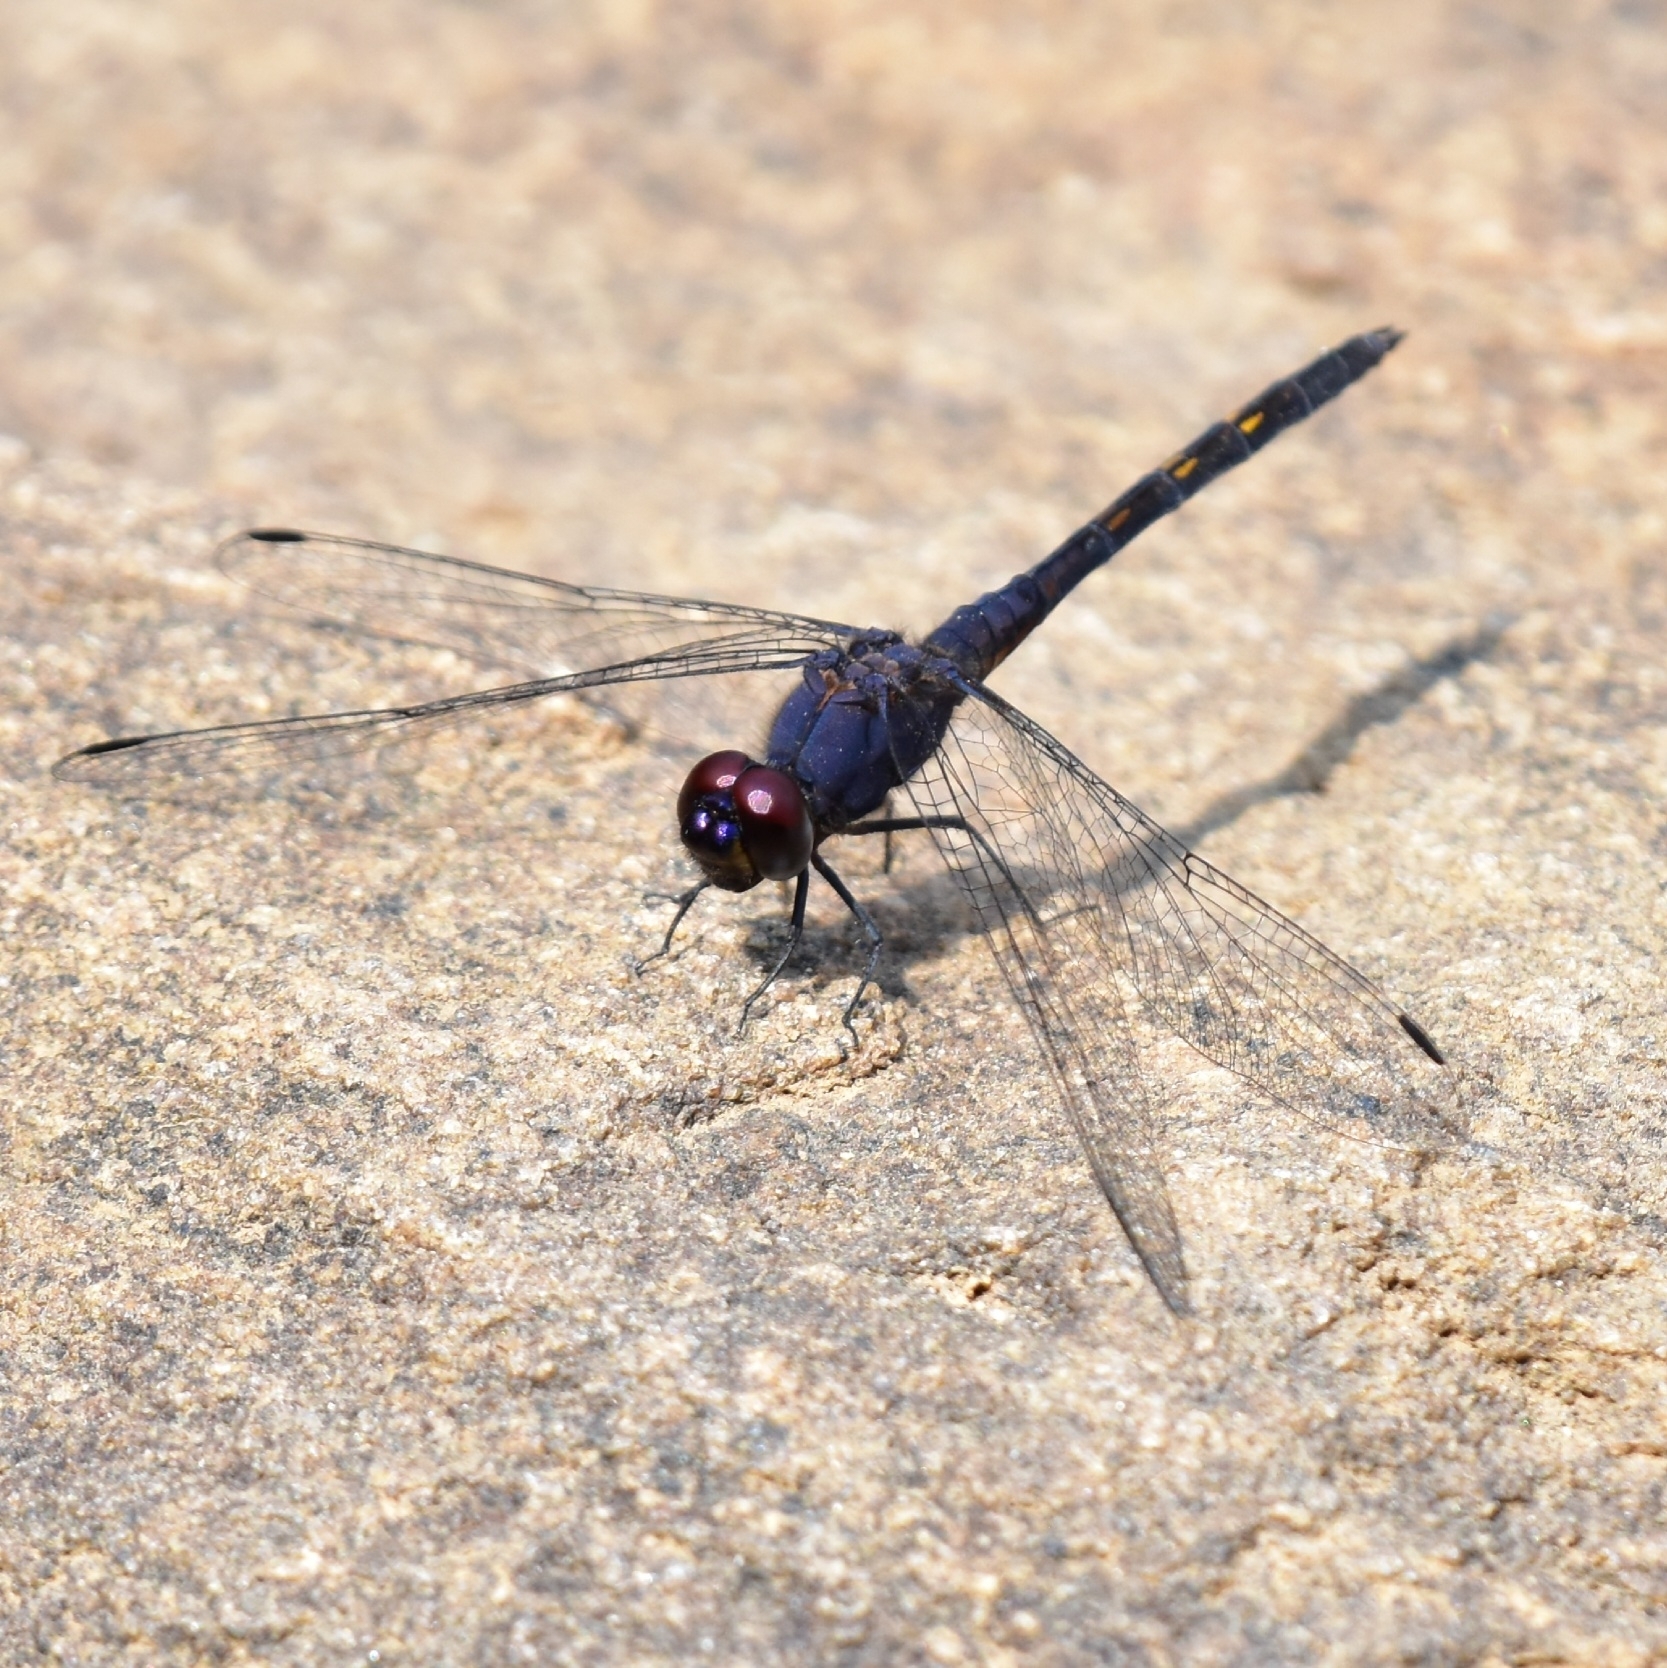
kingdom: Animalia
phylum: Arthropoda
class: Insecta
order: Odonata
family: Libellulidae
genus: Trithemis
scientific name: Trithemis festiva
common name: Indigo dropwing
